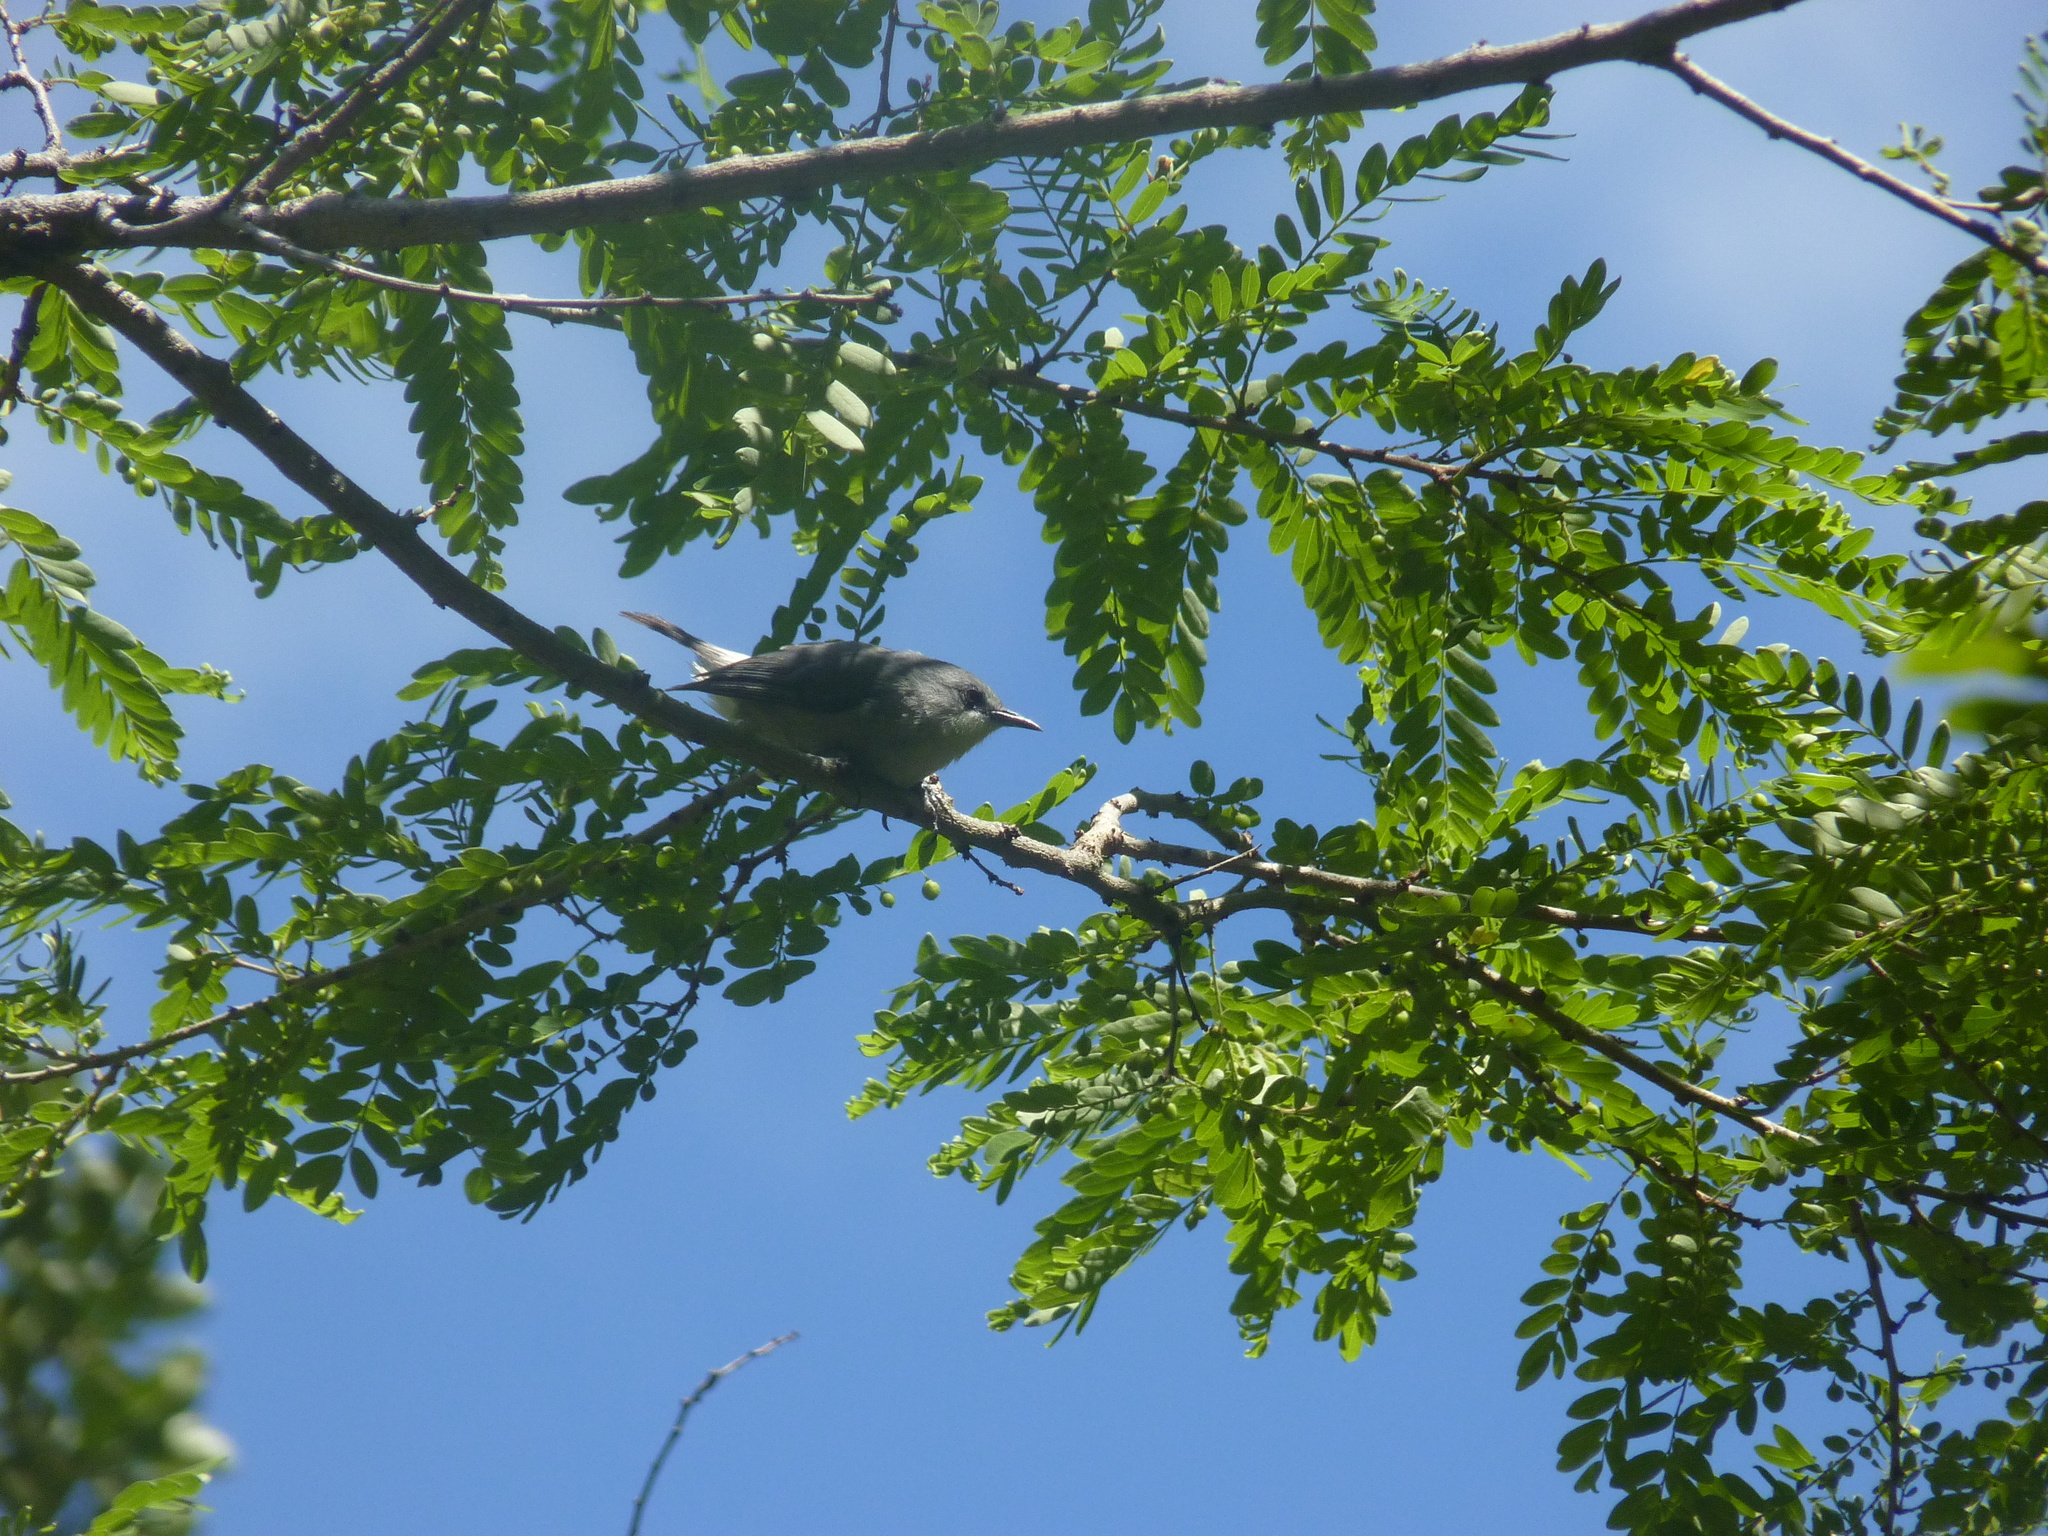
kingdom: Animalia
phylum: Chordata
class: Aves
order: Passeriformes
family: Zosteropidae
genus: Zosterops
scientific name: Zosterops mauritianus
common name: Mauritius gray white-eye
